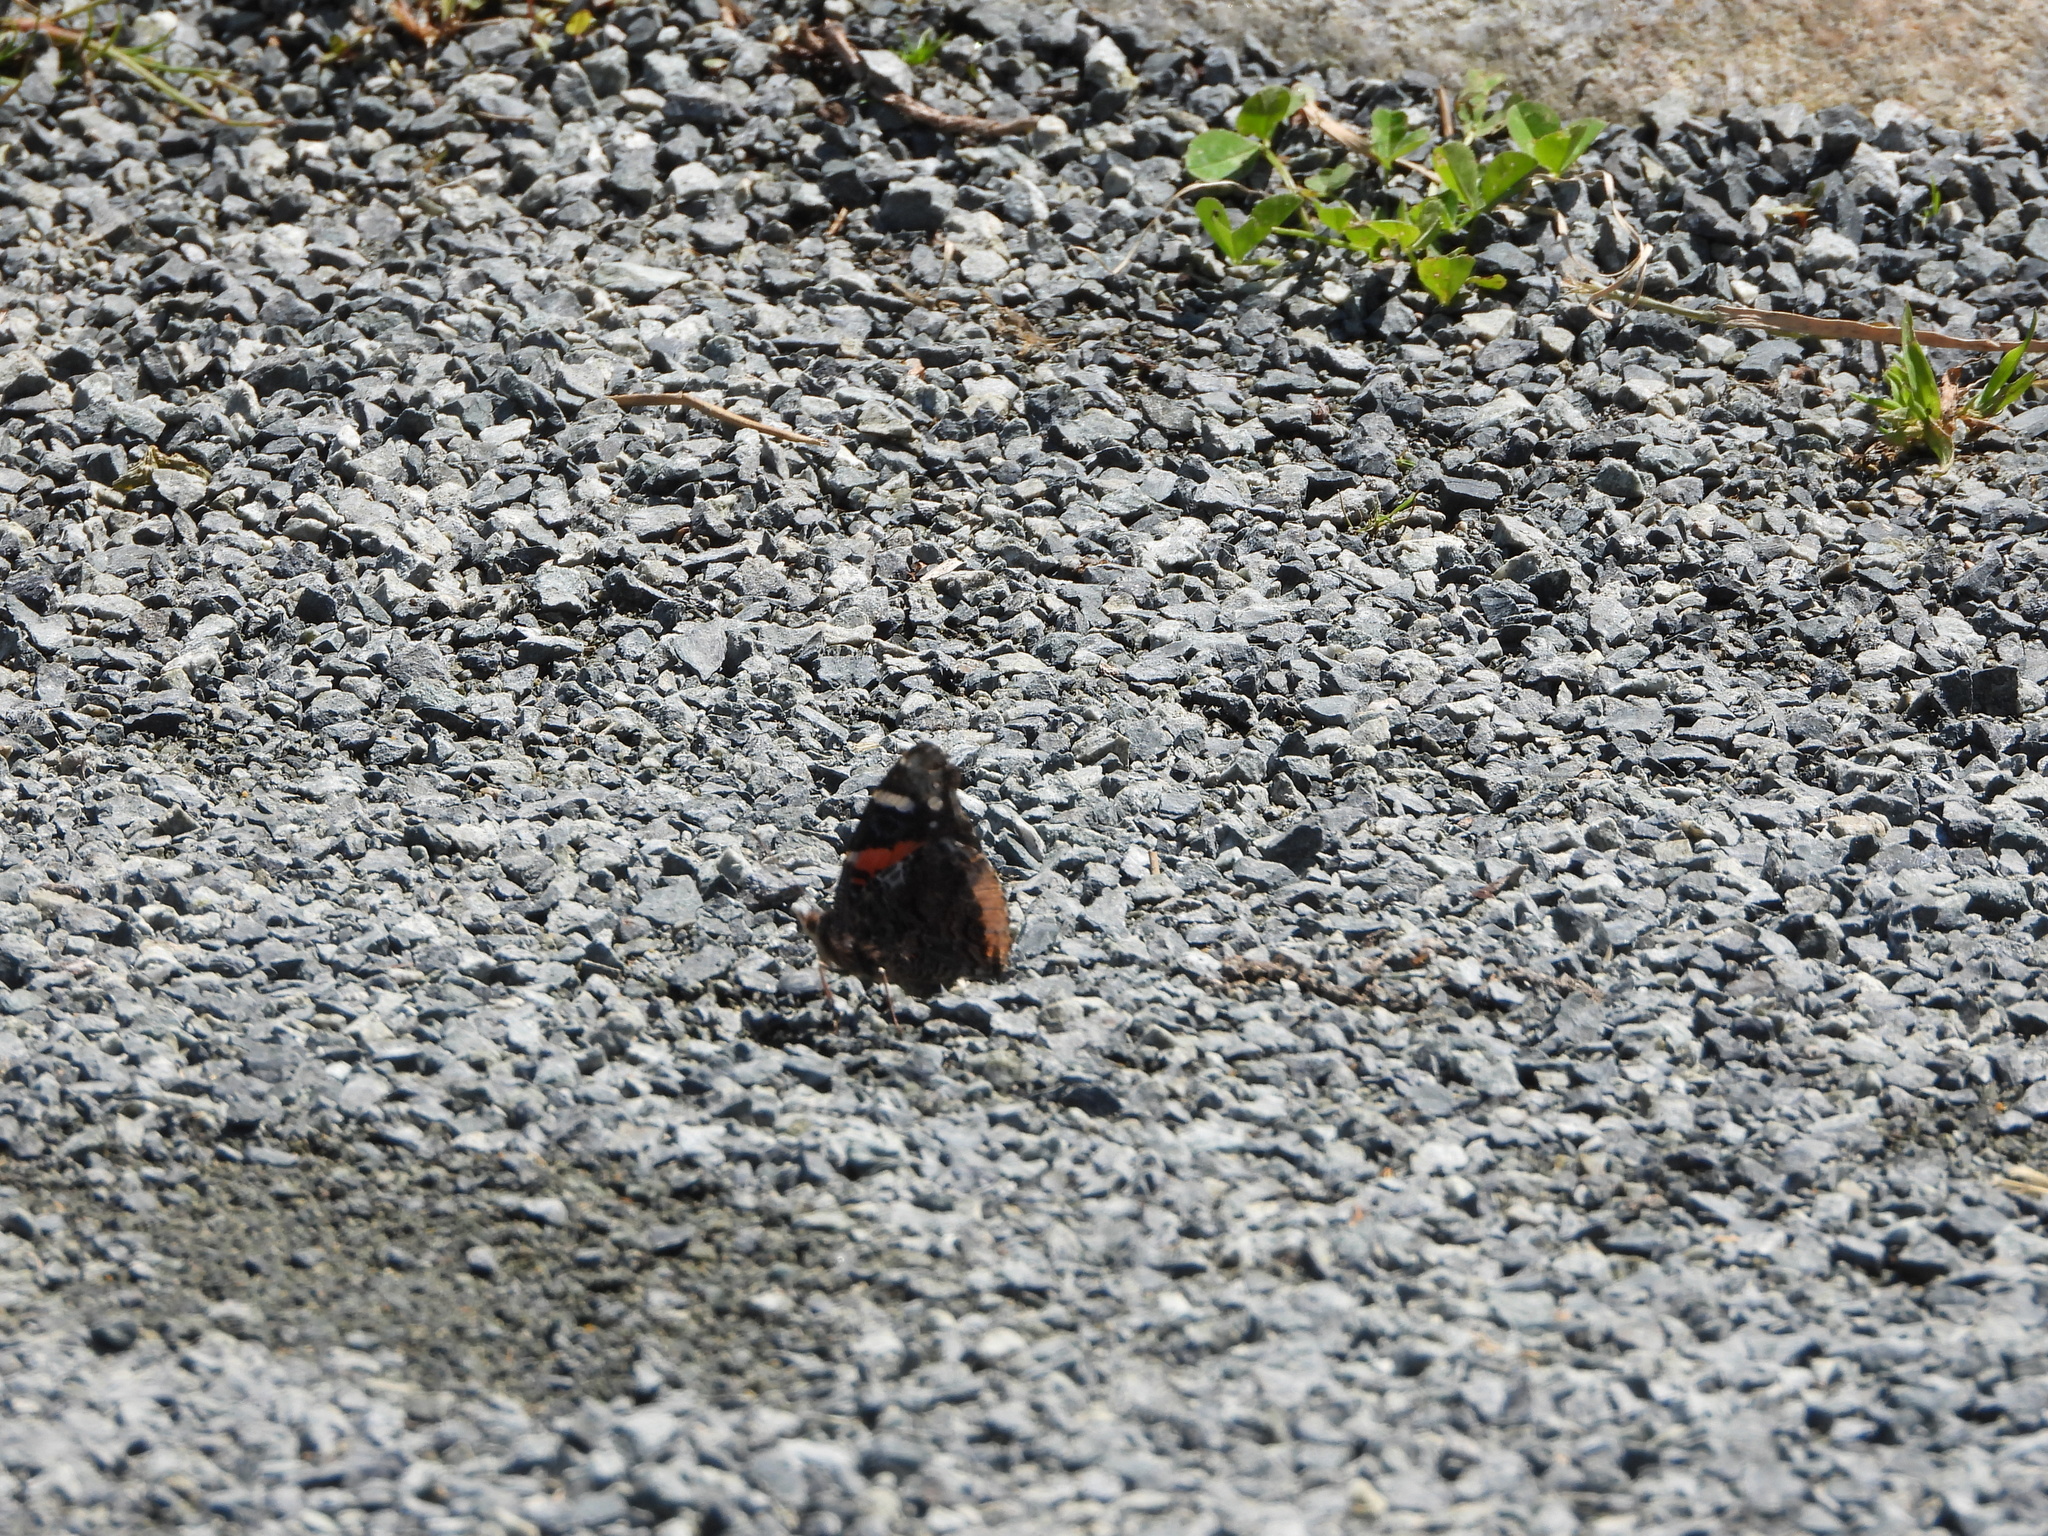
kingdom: Animalia
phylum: Arthropoda
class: Insecta
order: Lepidoptera
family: Nymphalidae
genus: Vanessa
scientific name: Vanessa atalanta
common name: Red admiral
